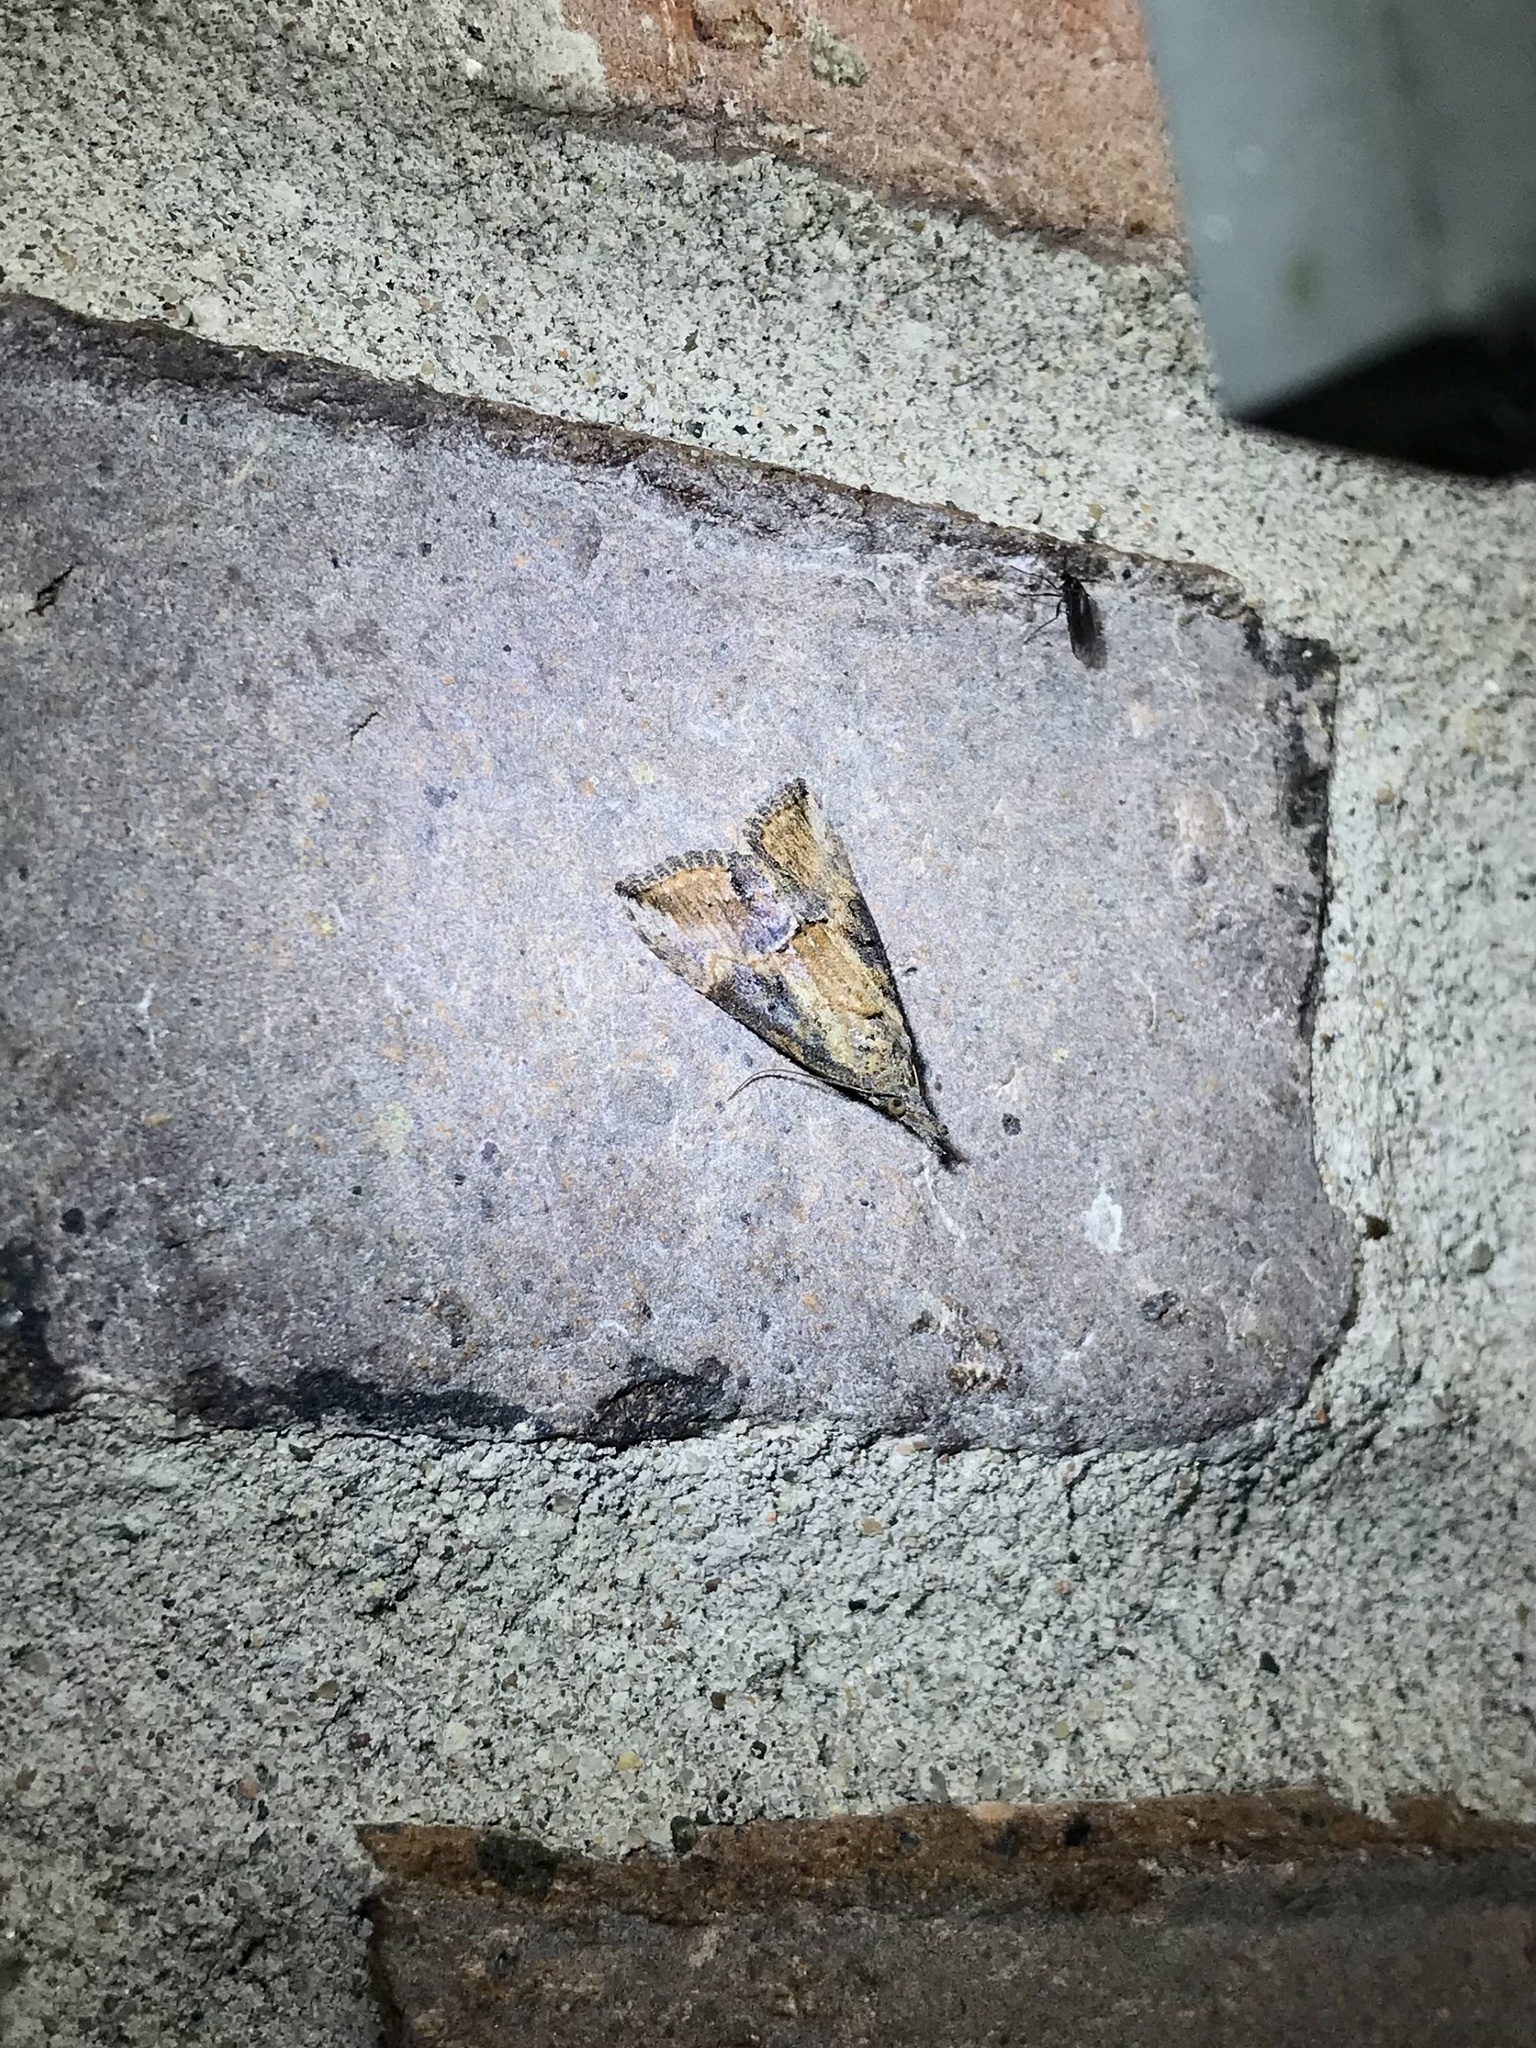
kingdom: Animalia
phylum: Arthropoda
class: Insecta
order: Lepidoptera
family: Erebidae
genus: Hypena
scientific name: Hypena scabra
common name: Green cloverworm
